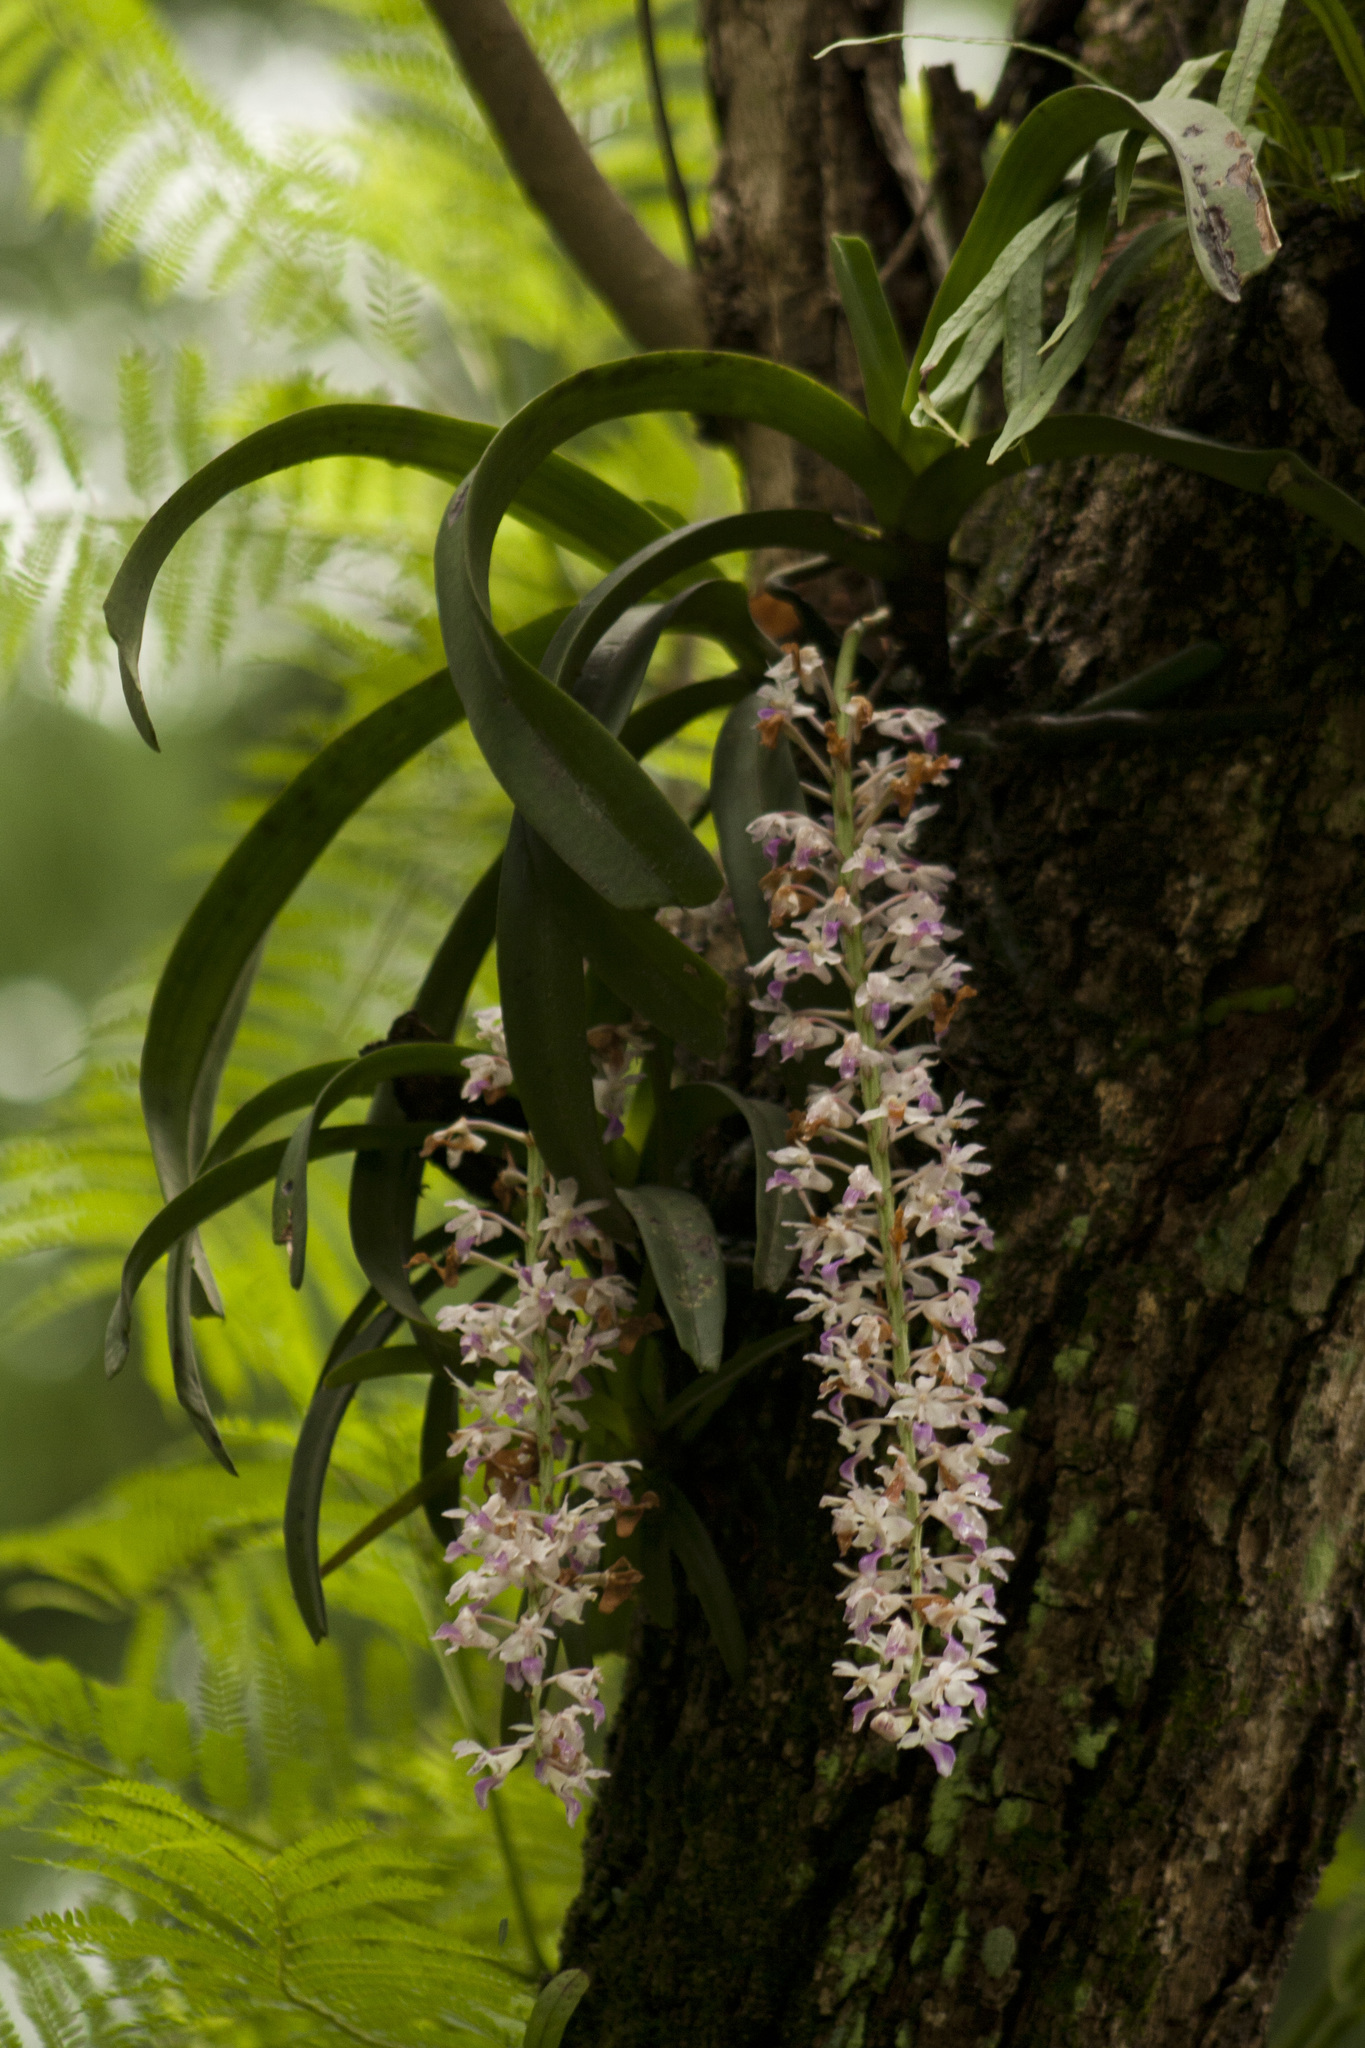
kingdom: Plantae
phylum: Tracheophyta
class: Liliopsida
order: Asparagales
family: Orchidaceae
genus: Rhynchostylis
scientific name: Rhynchostylis retusa
